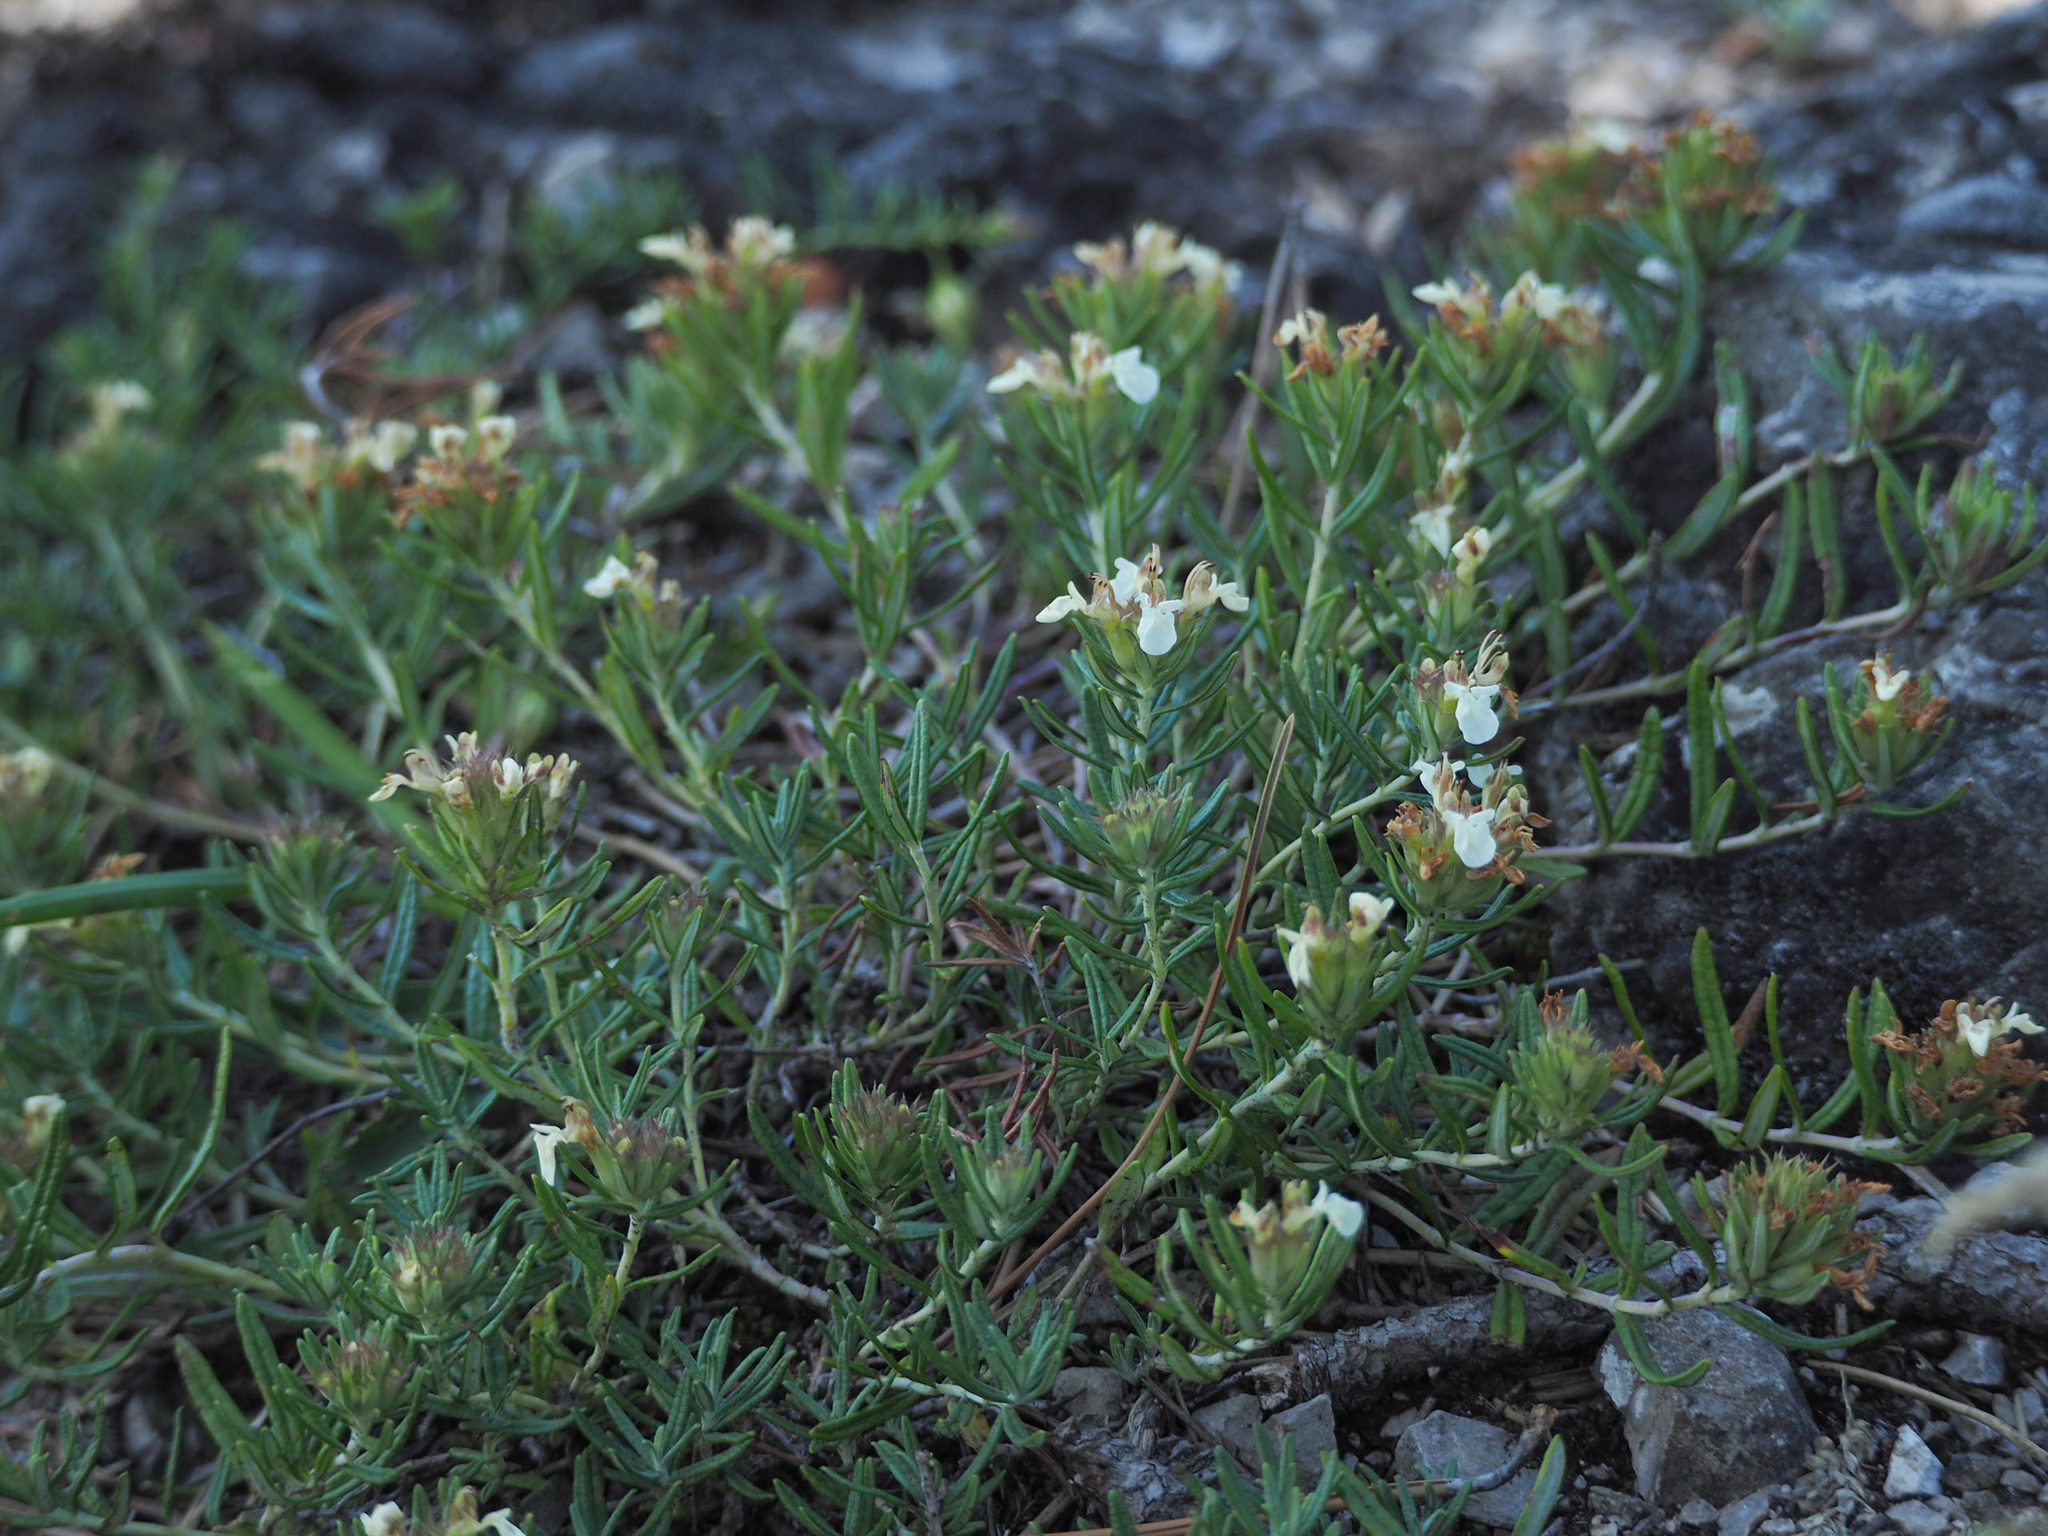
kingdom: Plantae
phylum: Tracheophyta
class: Magnoliopsida
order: Lamiales
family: Lamiaceae
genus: Teucrium
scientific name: Teucrium montanum
